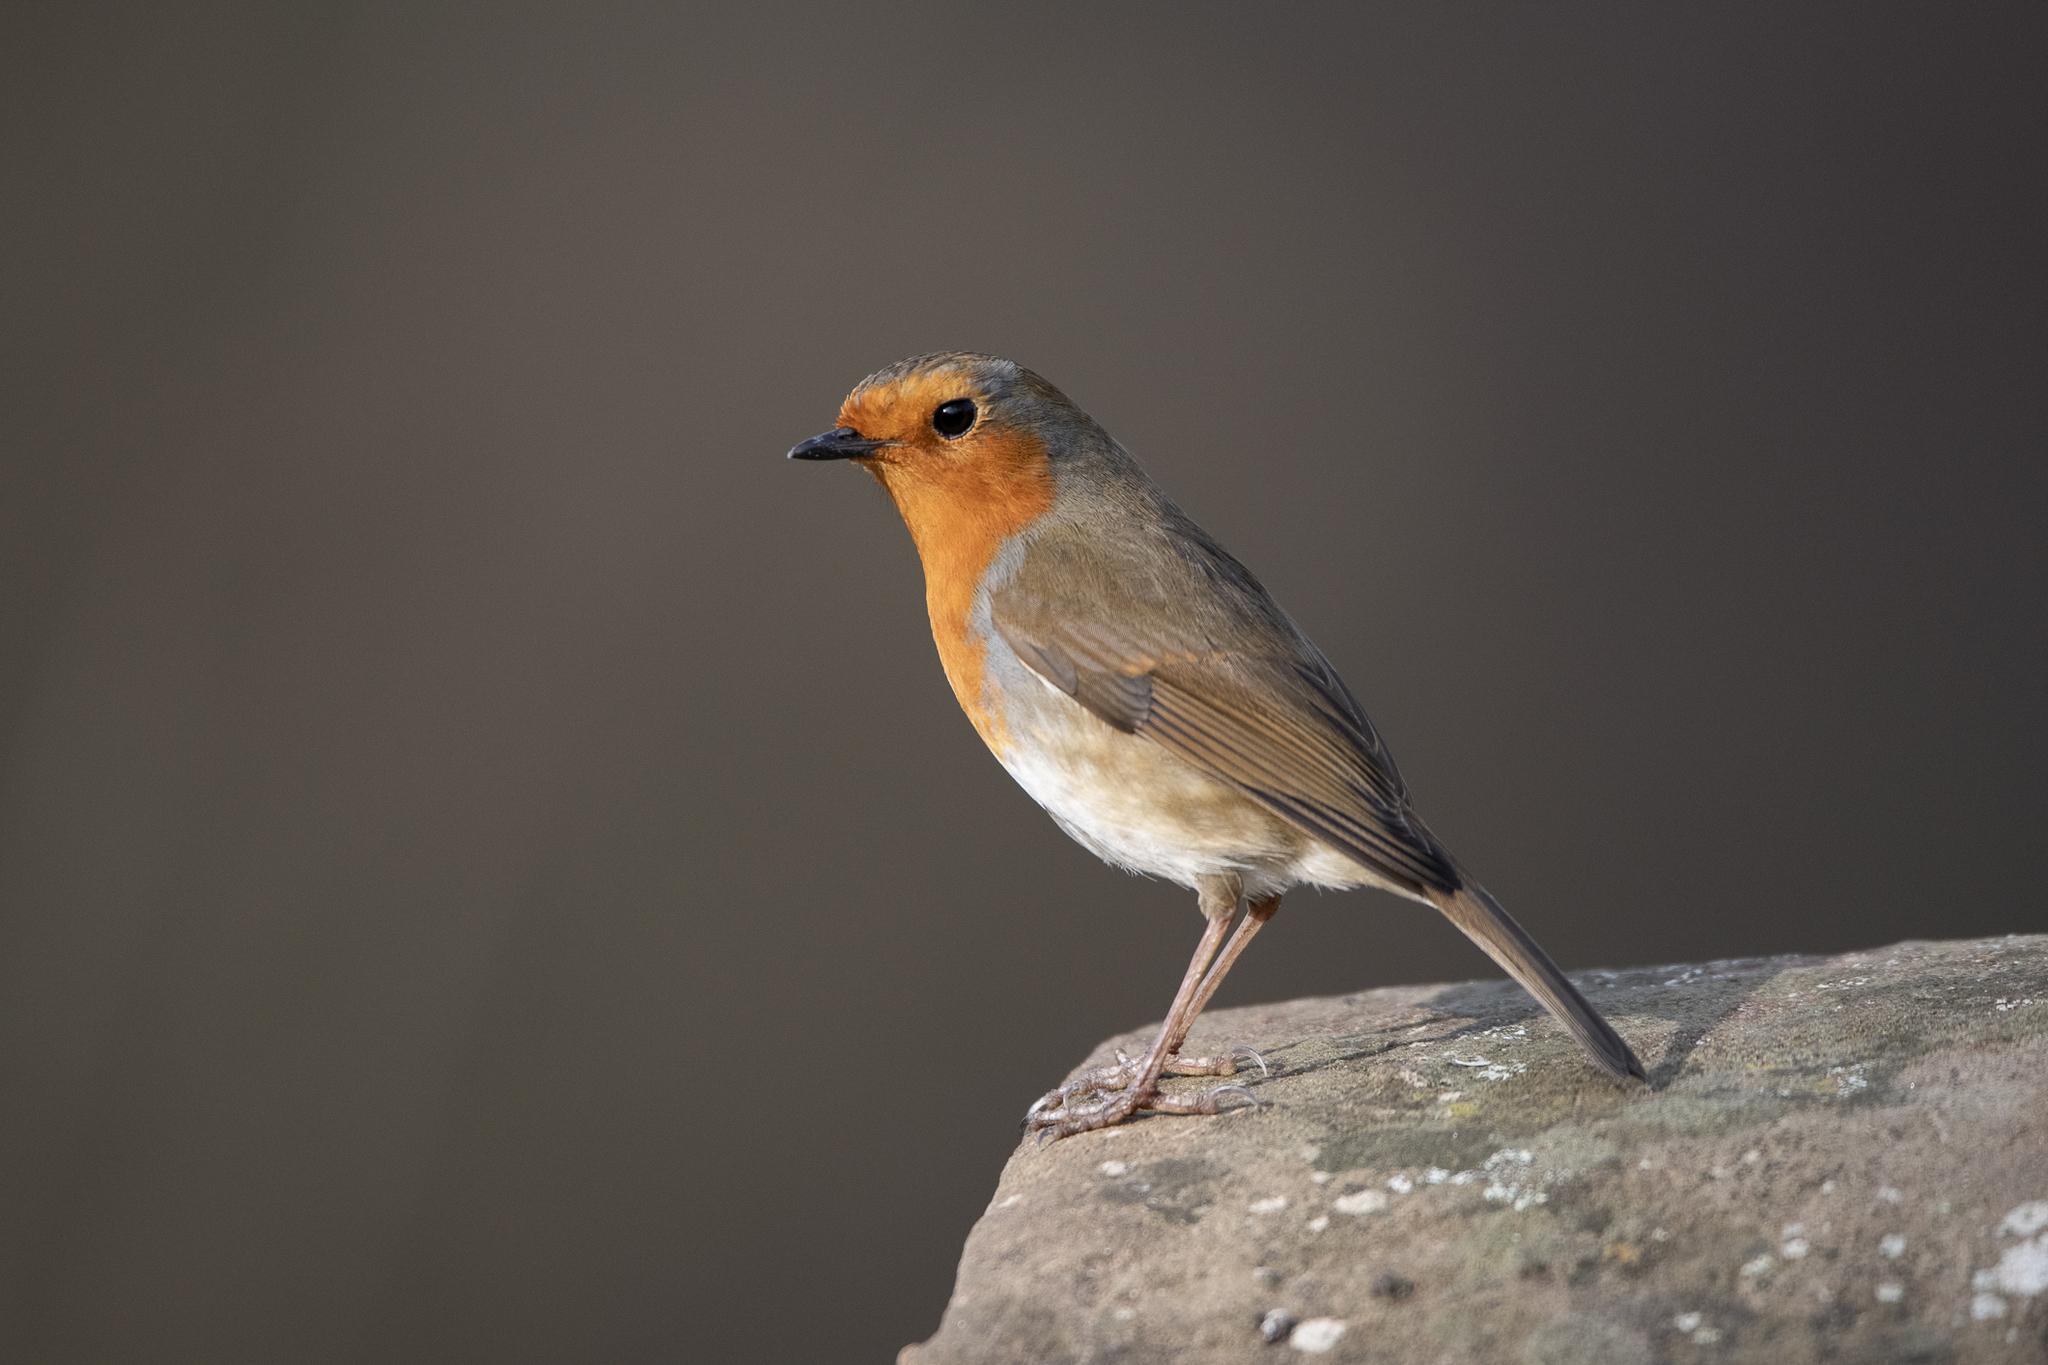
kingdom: Animalia
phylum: Chordata
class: Aves
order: Passeriformes
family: Muscicapidae
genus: Erithacus
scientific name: Erithacus rubecula
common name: European robin
